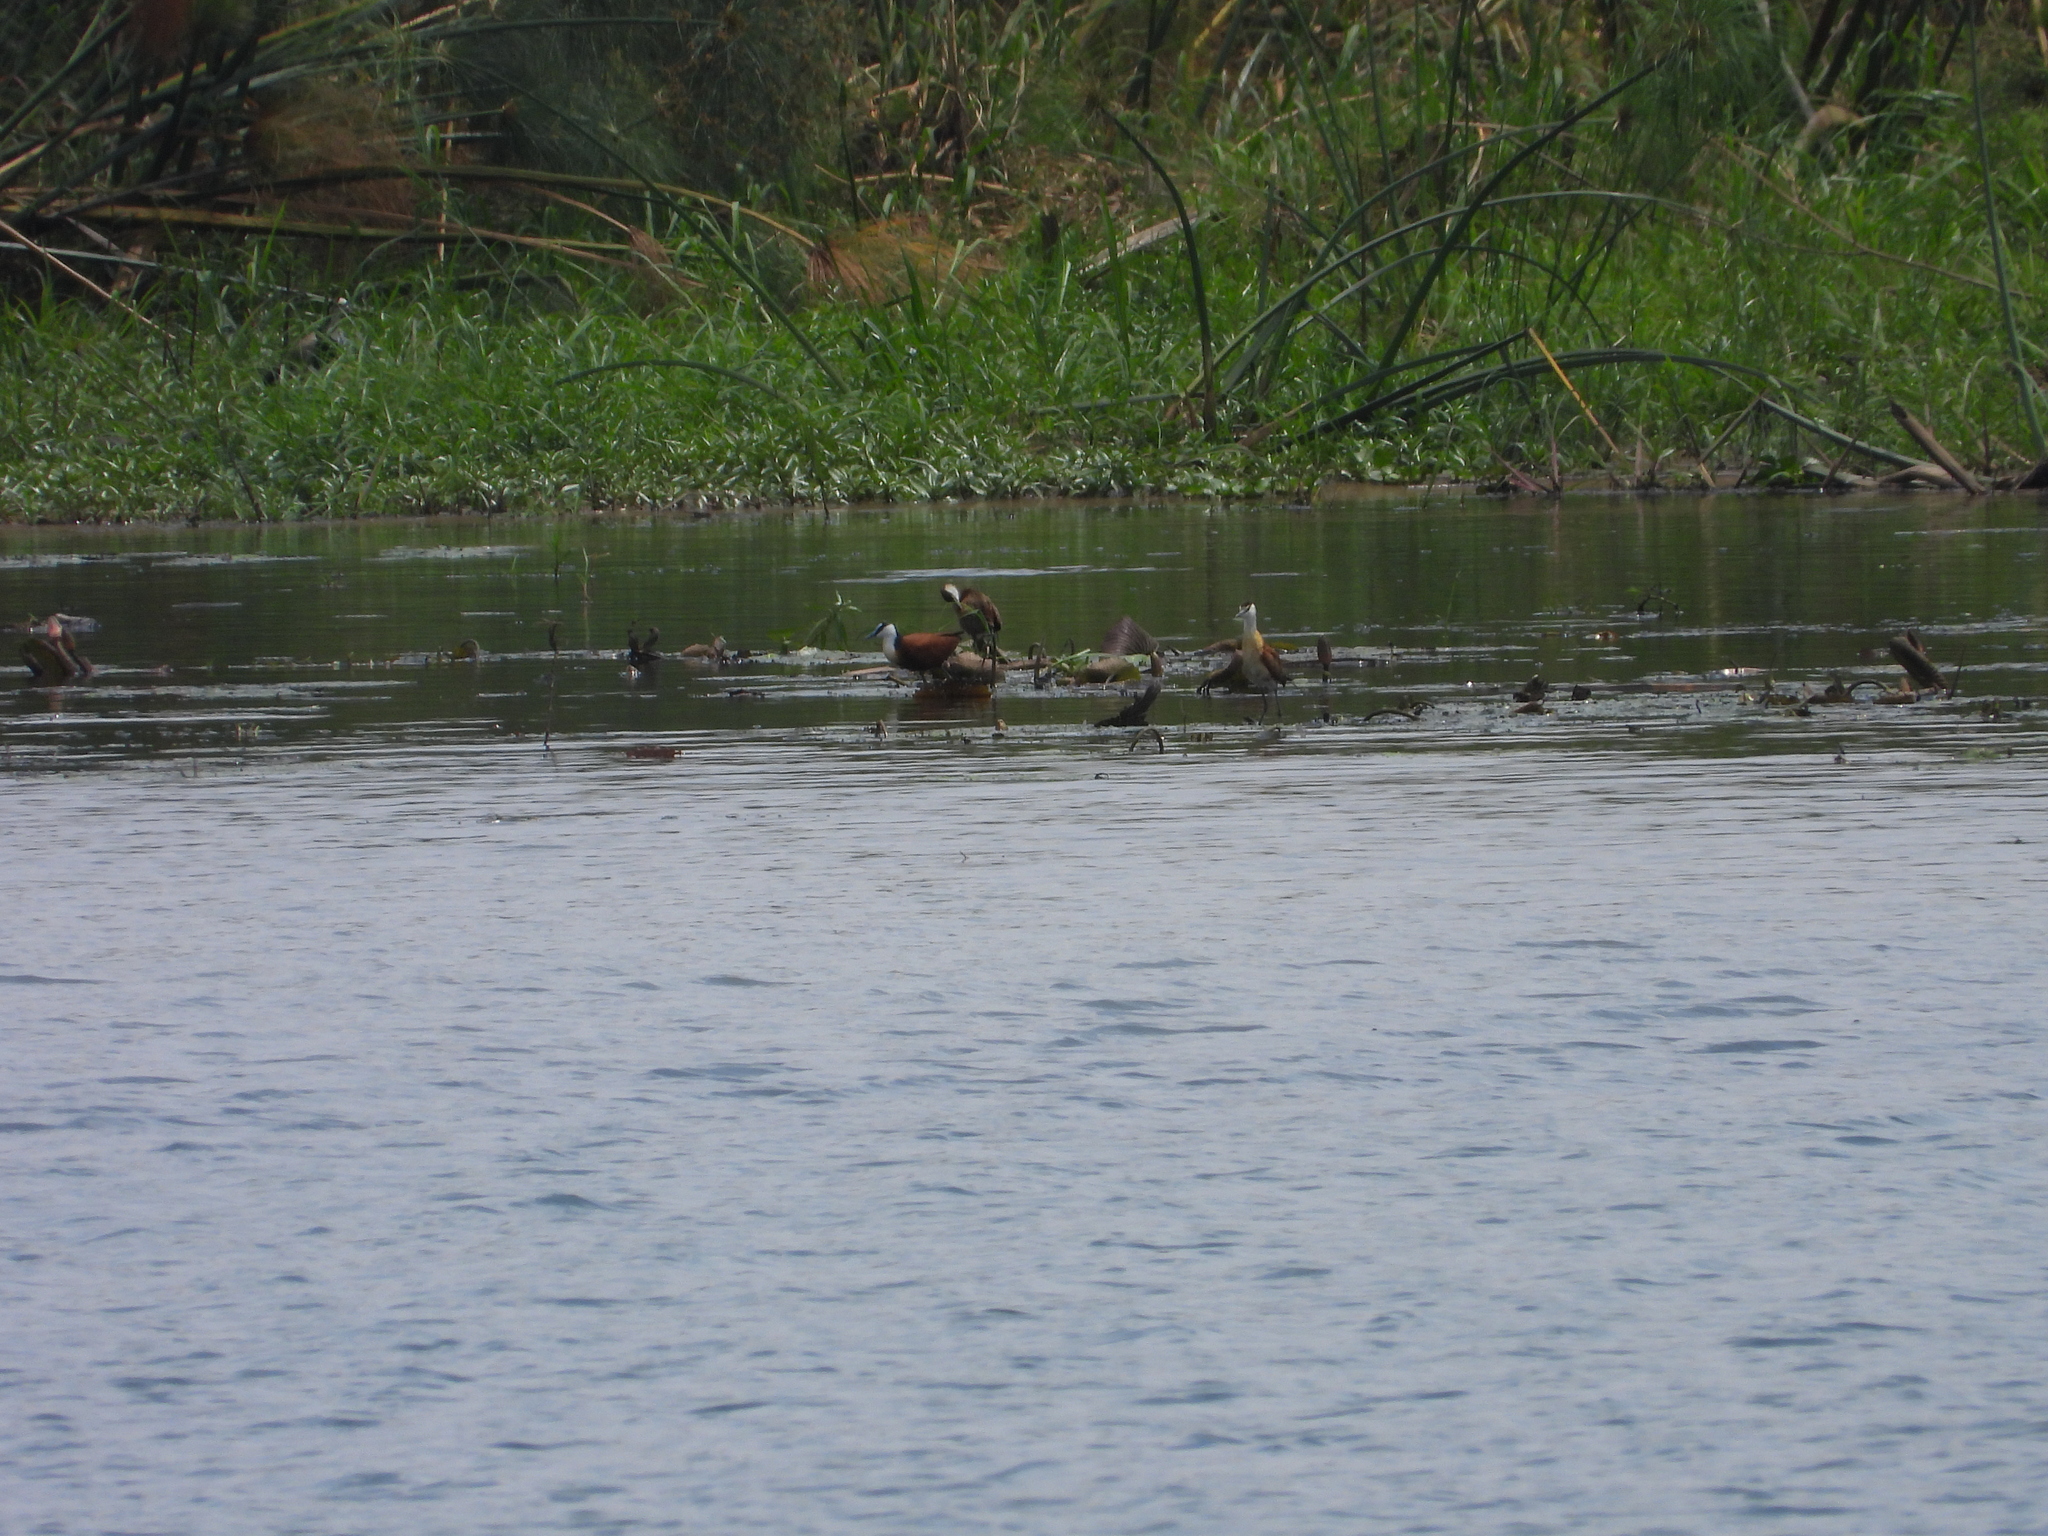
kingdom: Animalia
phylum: Chordata
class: Aves
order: Charadriiformes
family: Jacanidae
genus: Actophilornis
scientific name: Actophilornis africanus
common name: African jacana
